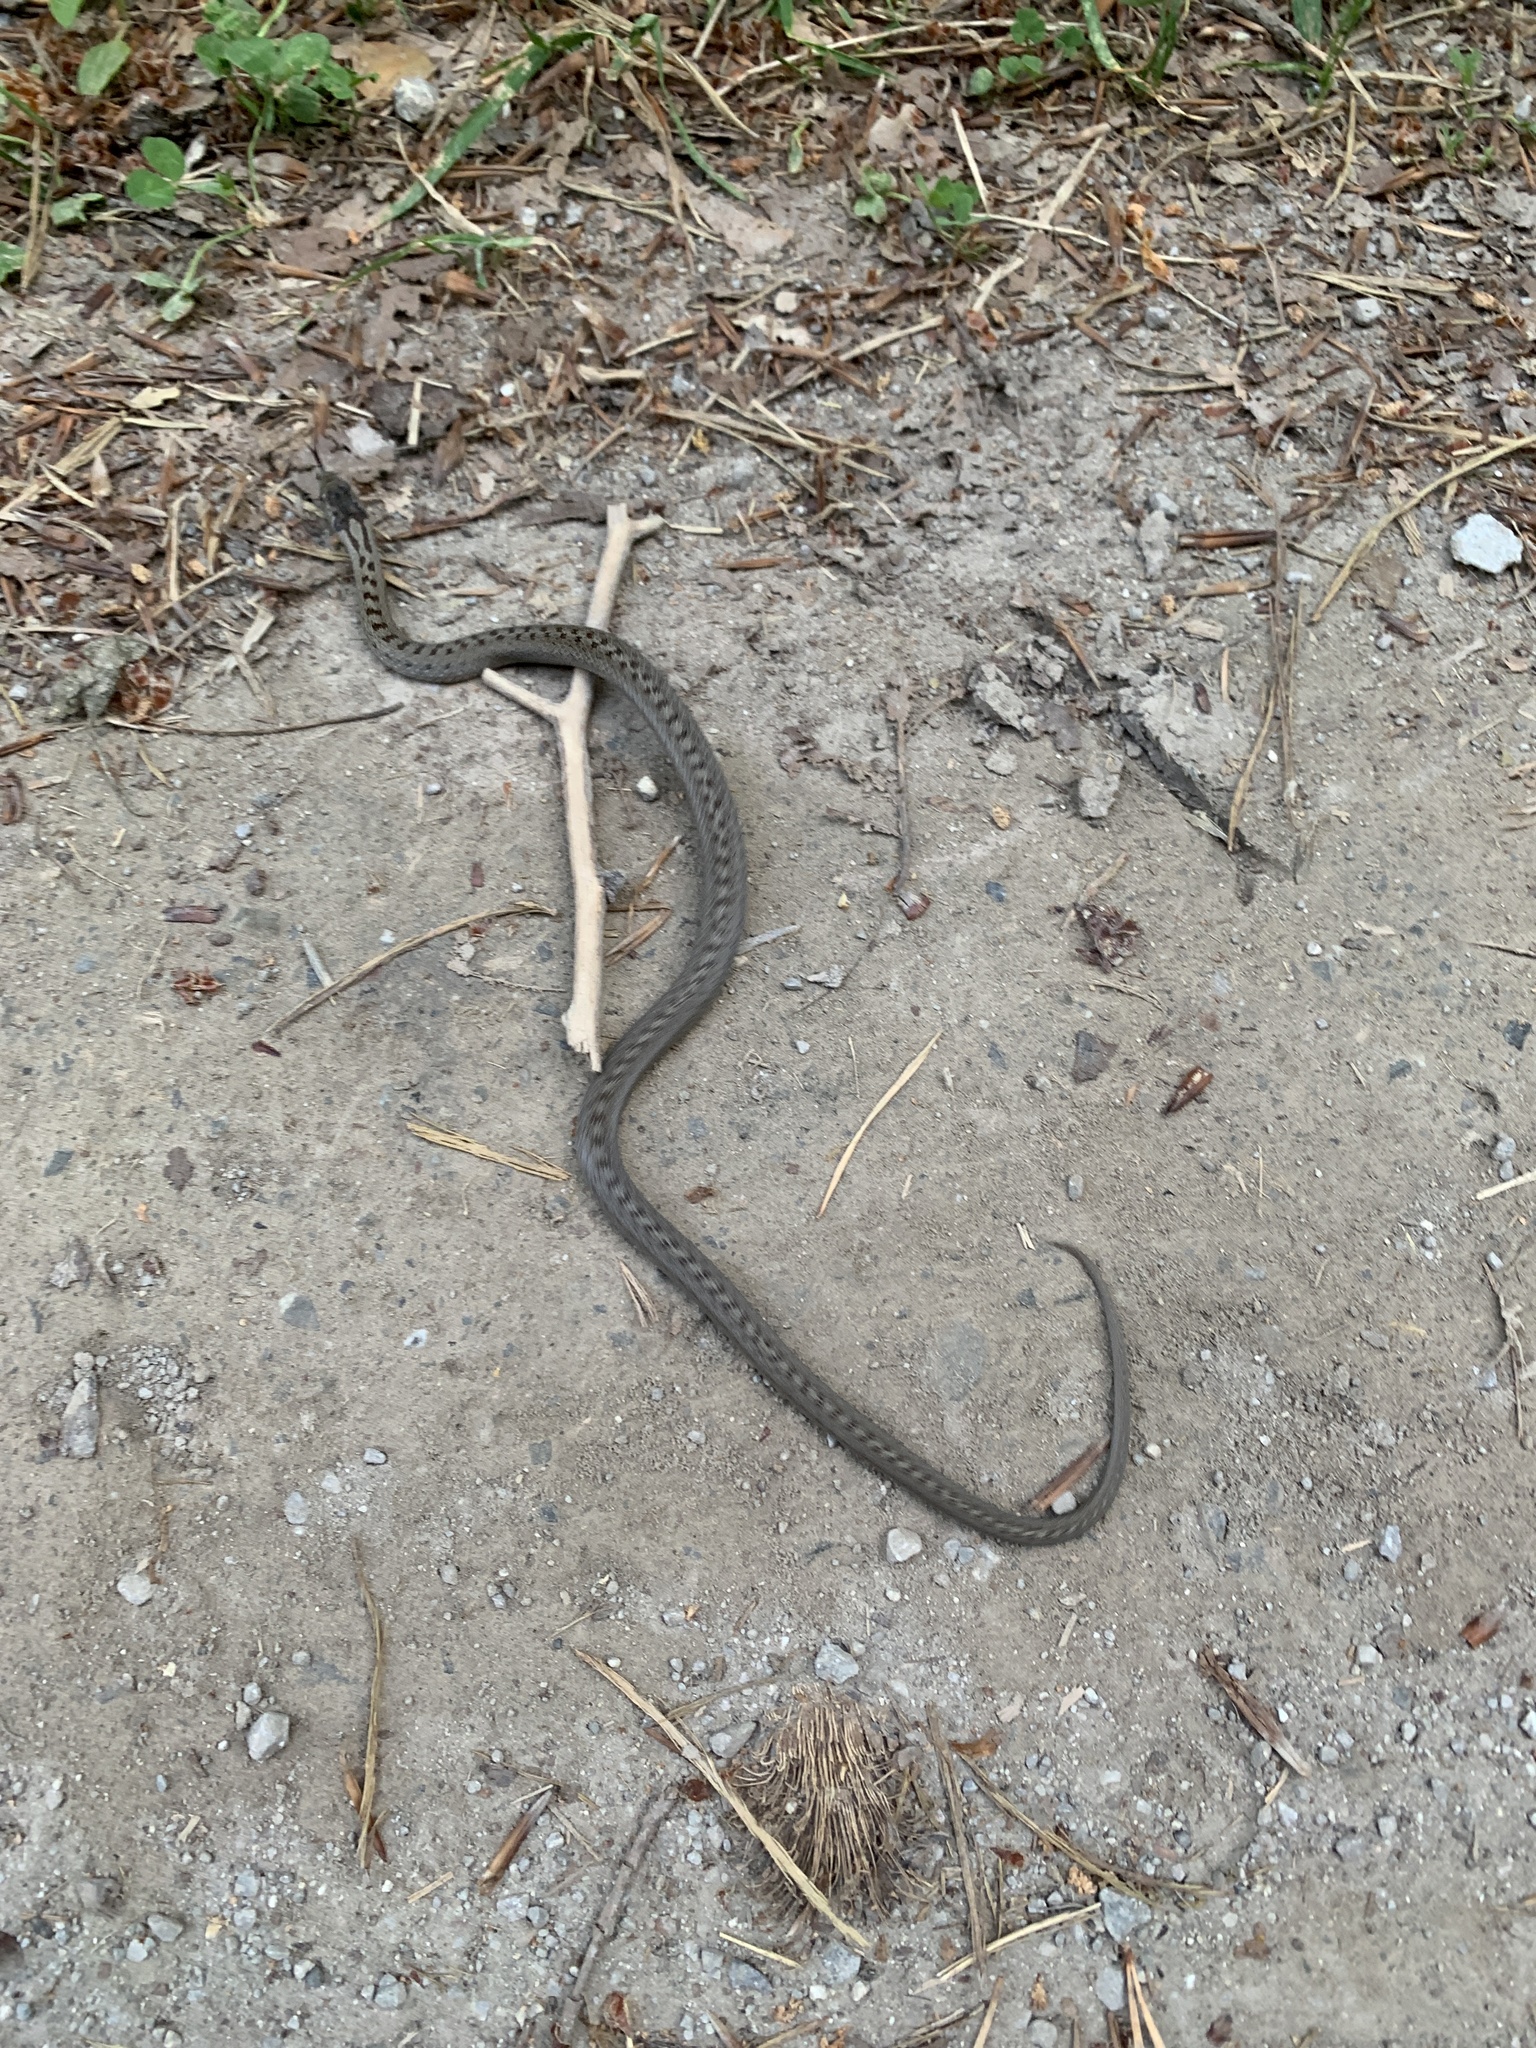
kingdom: Animalia
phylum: Chordata
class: Squamata
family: Colubridae
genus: Coronella
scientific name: Coronella austriaca
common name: Smooth snake
